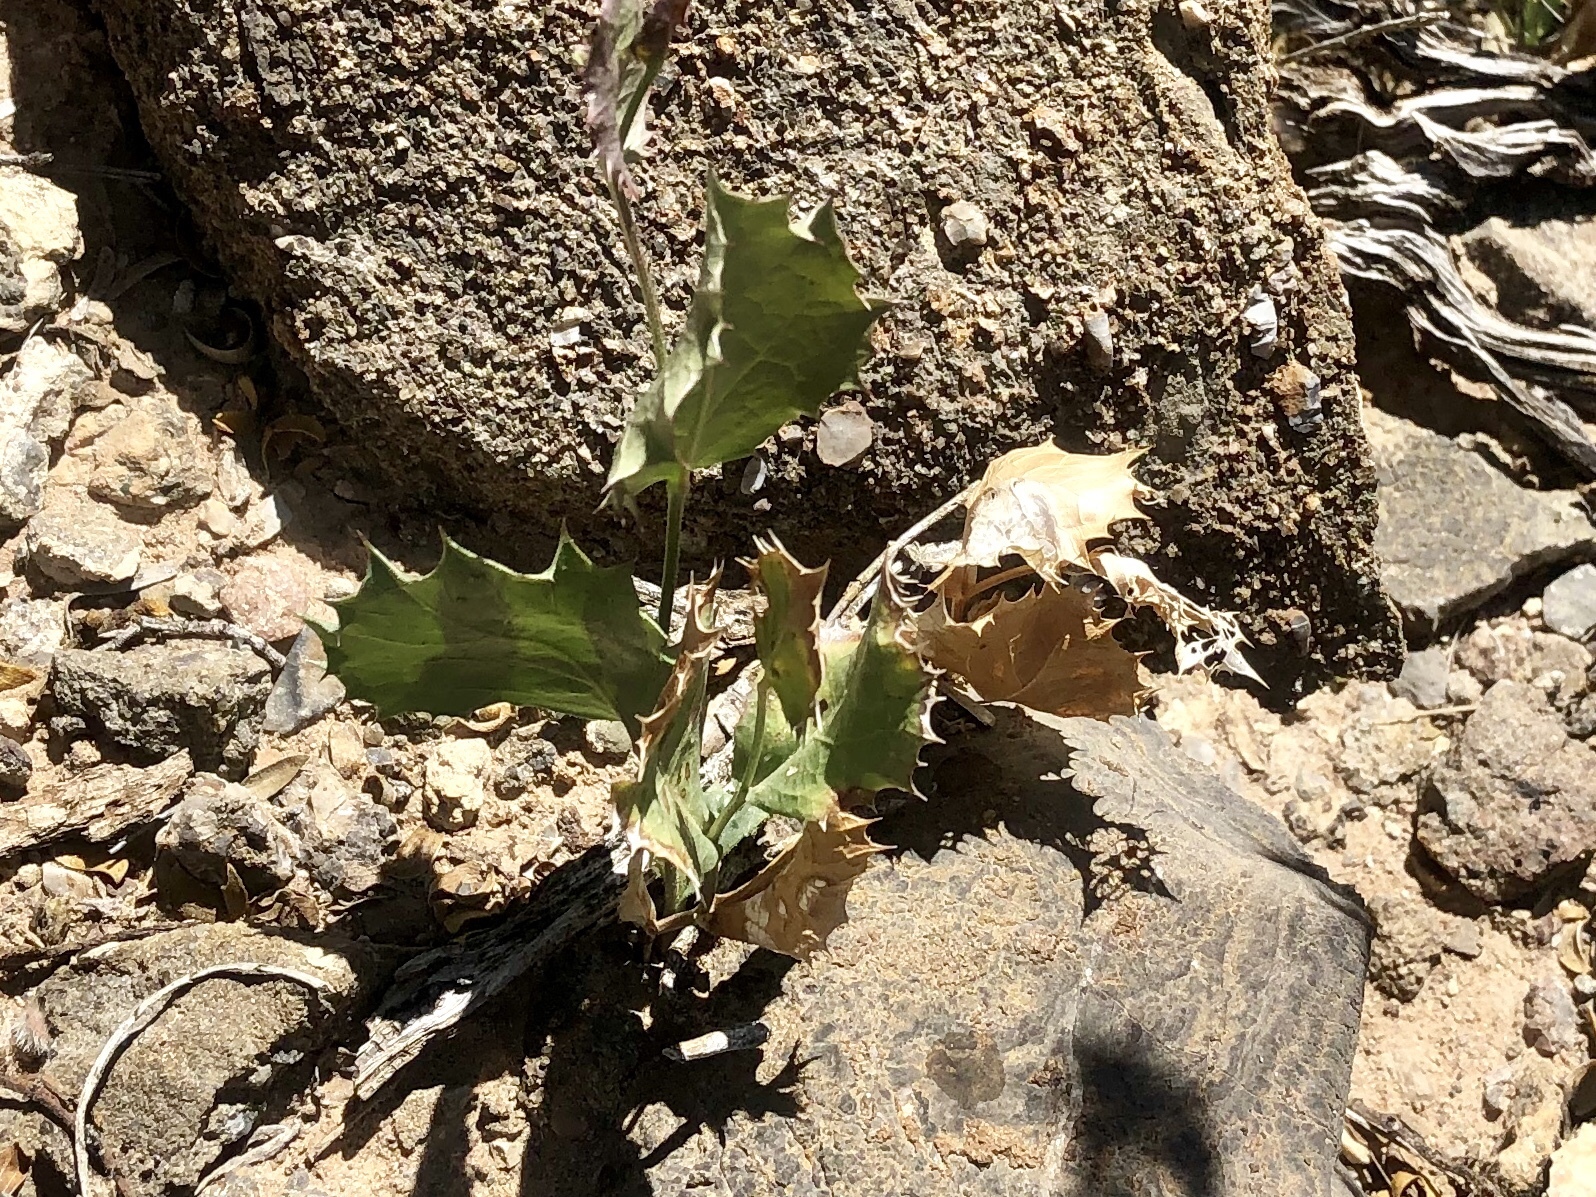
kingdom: Plantae
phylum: Tracheophyta
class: Magnoliopsida
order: Asterales
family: Asteraceae
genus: Acourtia
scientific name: Acourtia nana
